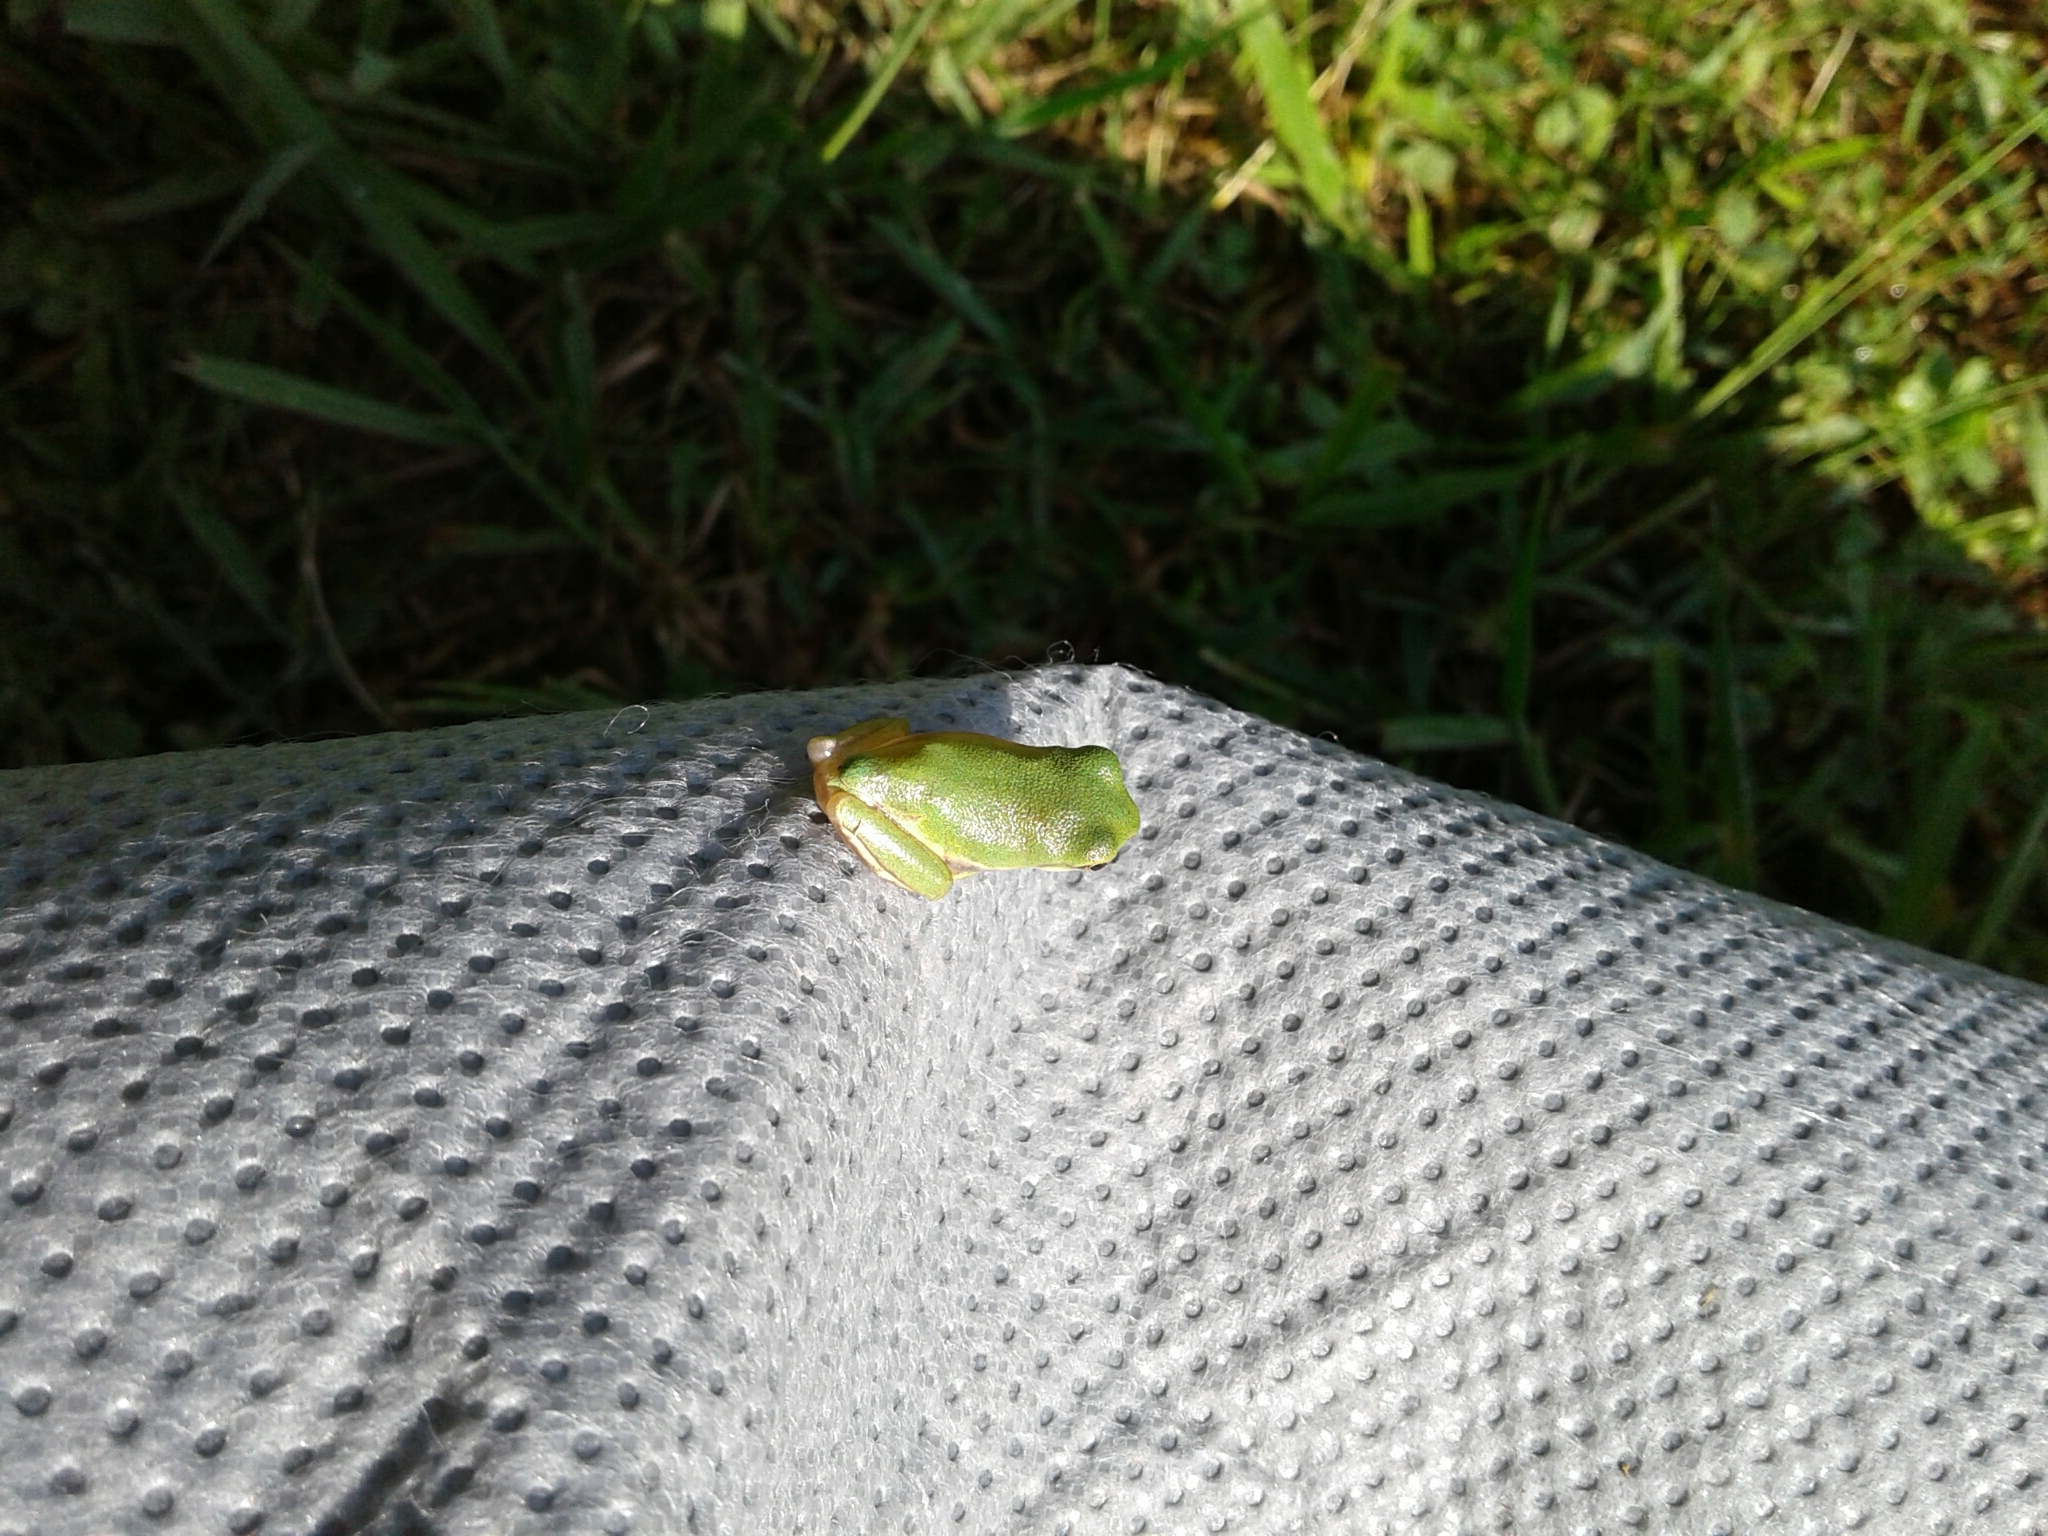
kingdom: Animalia
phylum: Chordata
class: Amphibia
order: Anura
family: Hylidae
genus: Dryophytes
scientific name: Dryophytes gratiosus
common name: Barking treefrog
